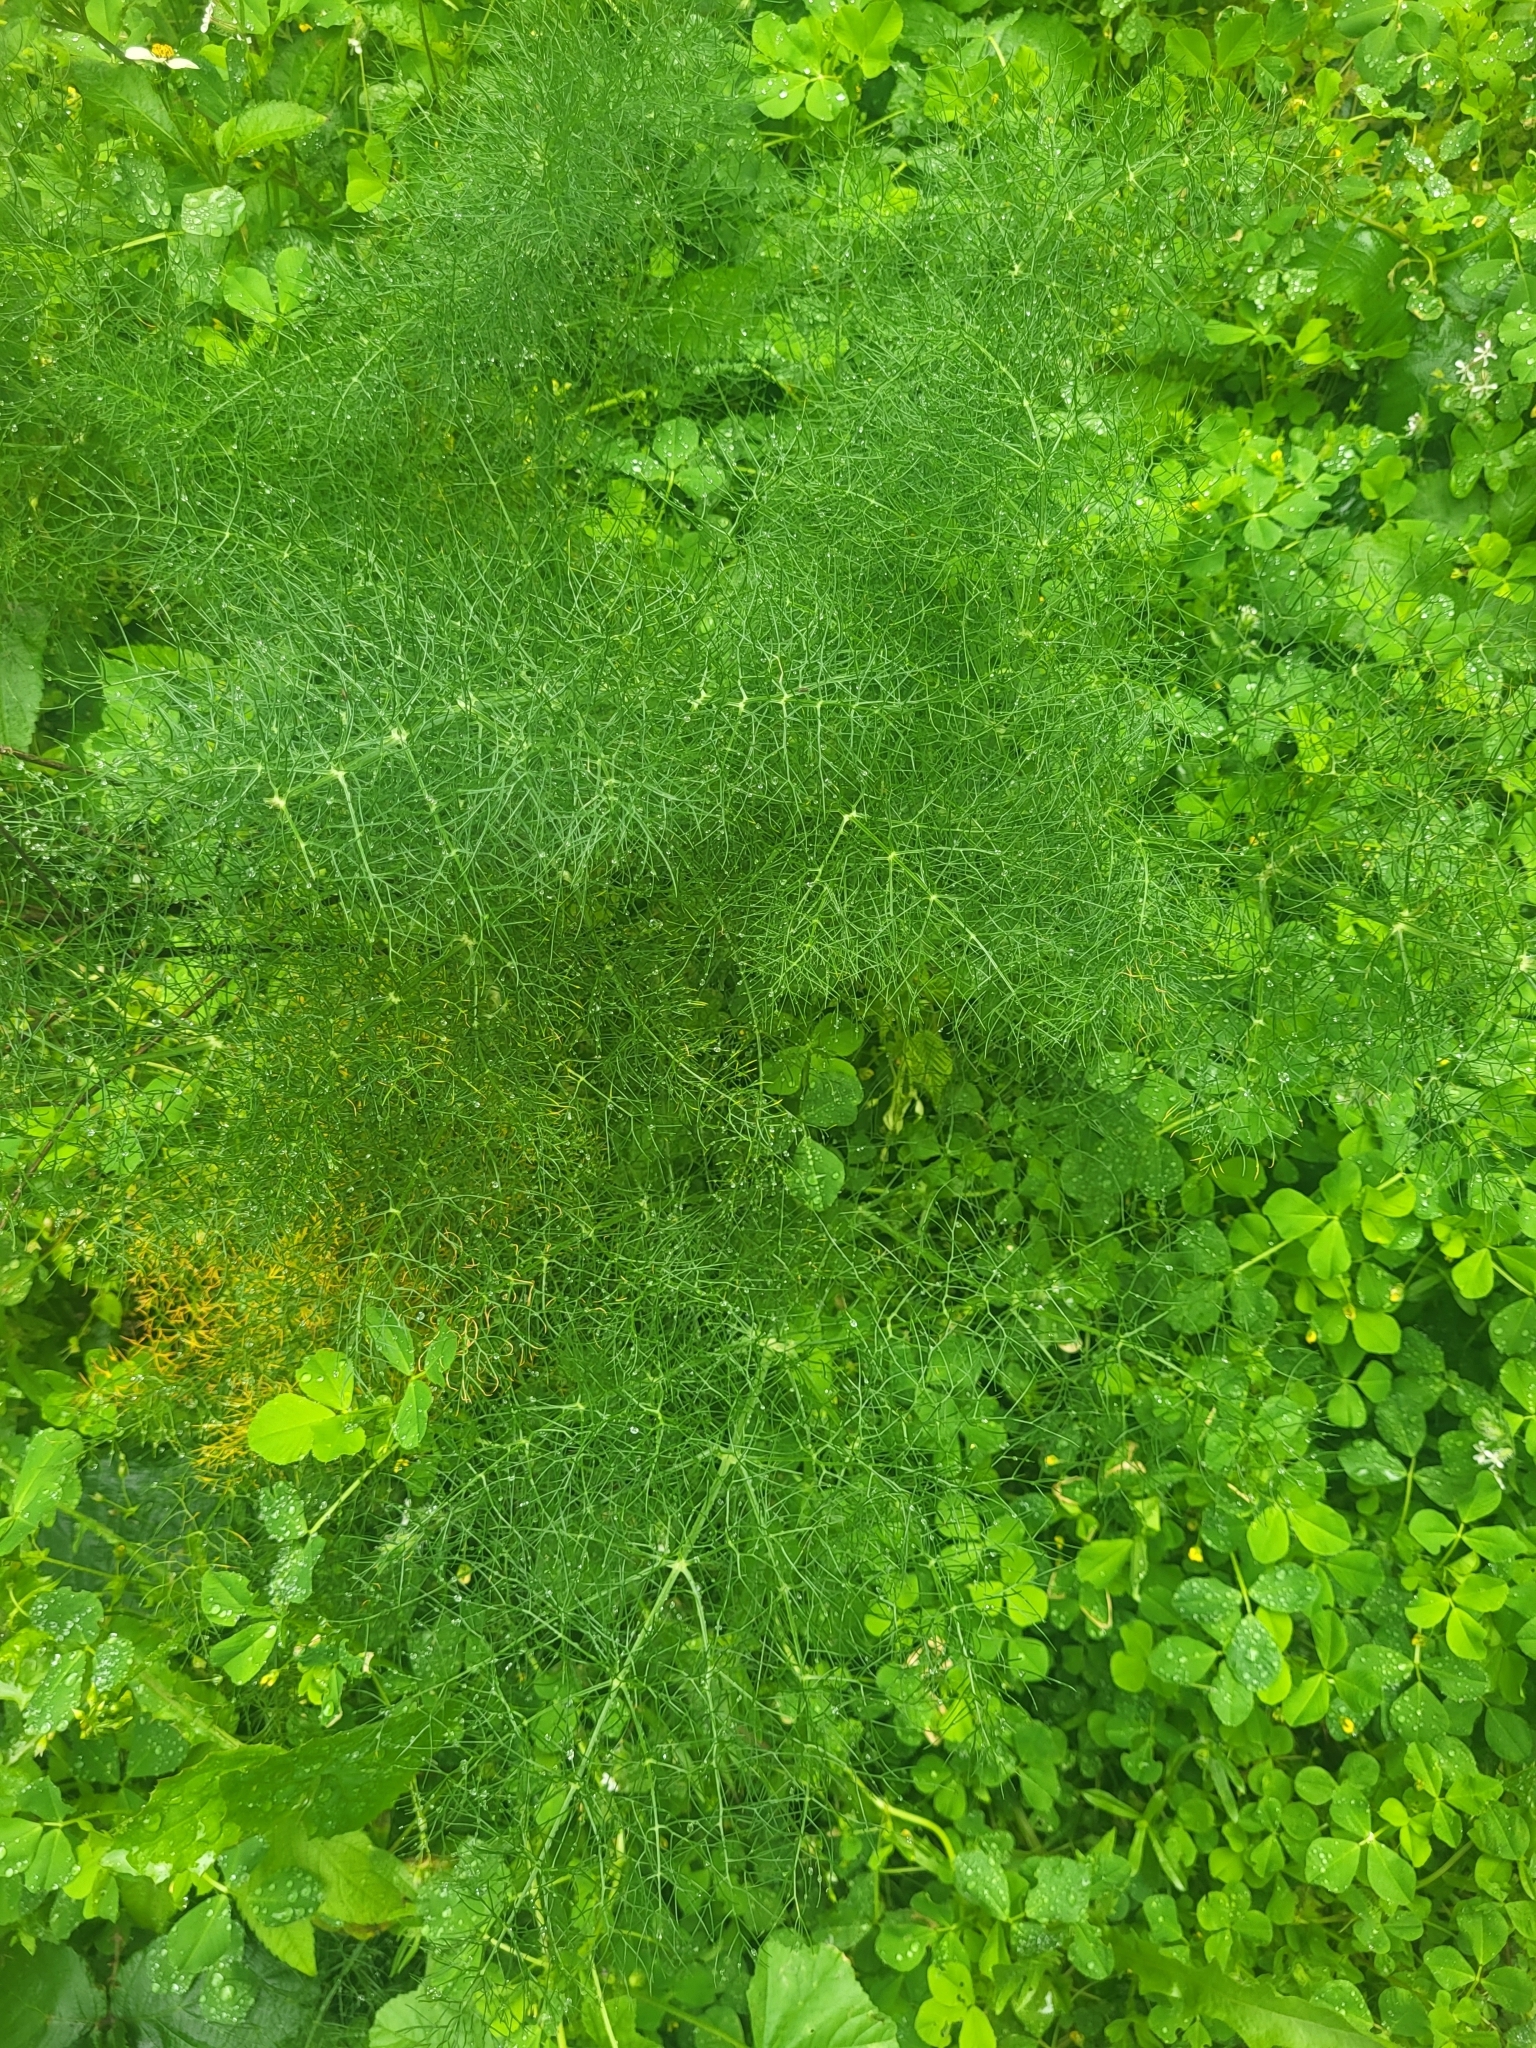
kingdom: Plantae
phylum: Tracheophyta
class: Magnoliopsida
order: Apiales
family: Apiaceae
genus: Foeniculum
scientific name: Foeniculum vulgare
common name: Fennel
